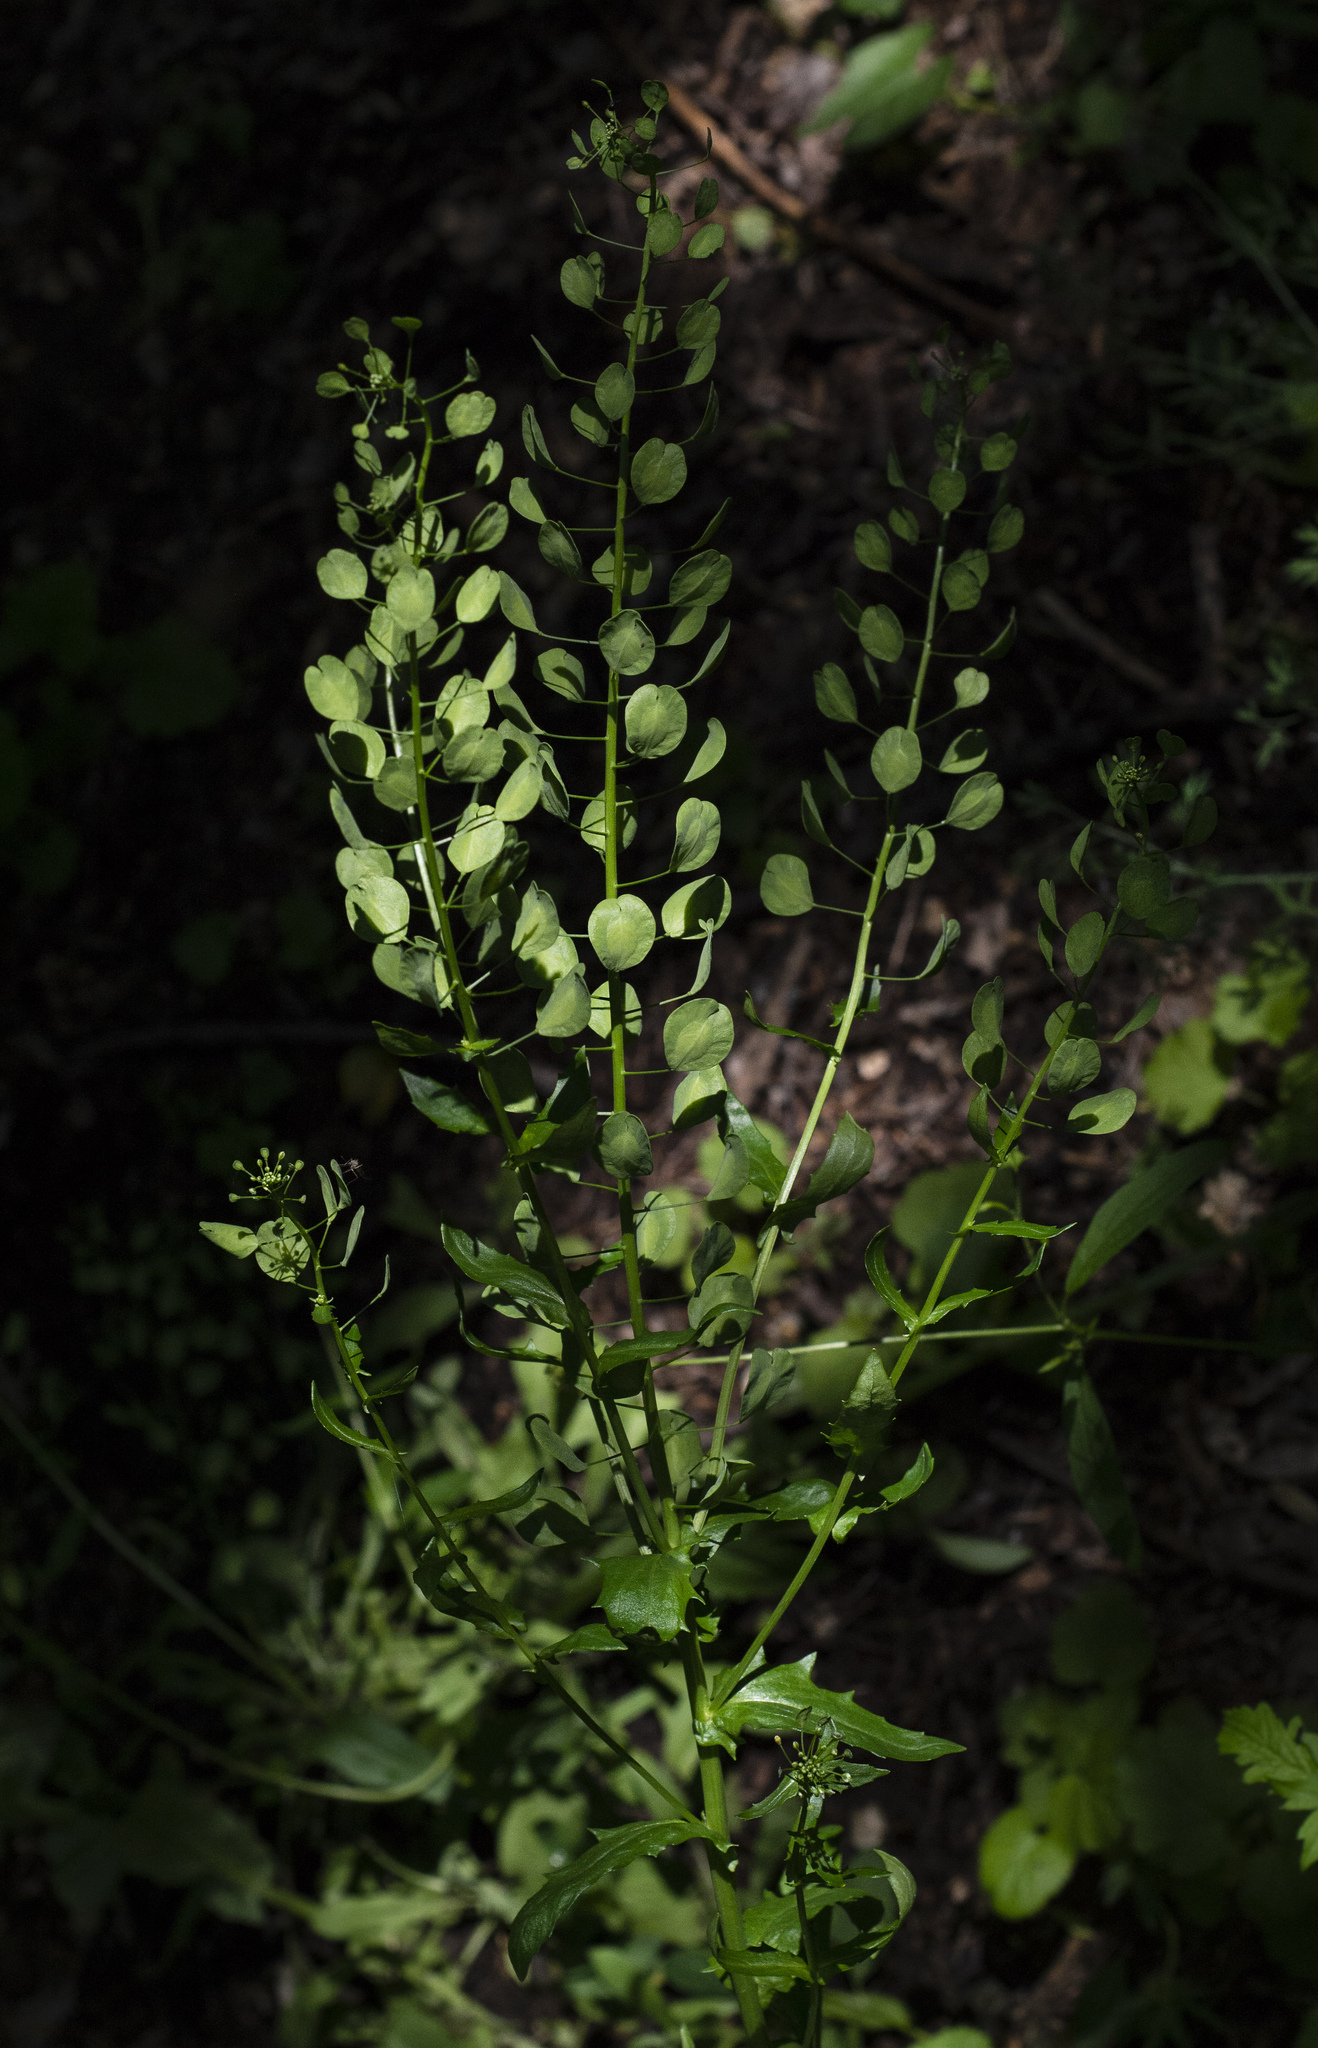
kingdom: Plantae
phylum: Tracheophyta
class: Magnoliopsida
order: Brassicales
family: Brassicaceae
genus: Thlaspi
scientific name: Thlaspi arvense
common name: Field pennycress
